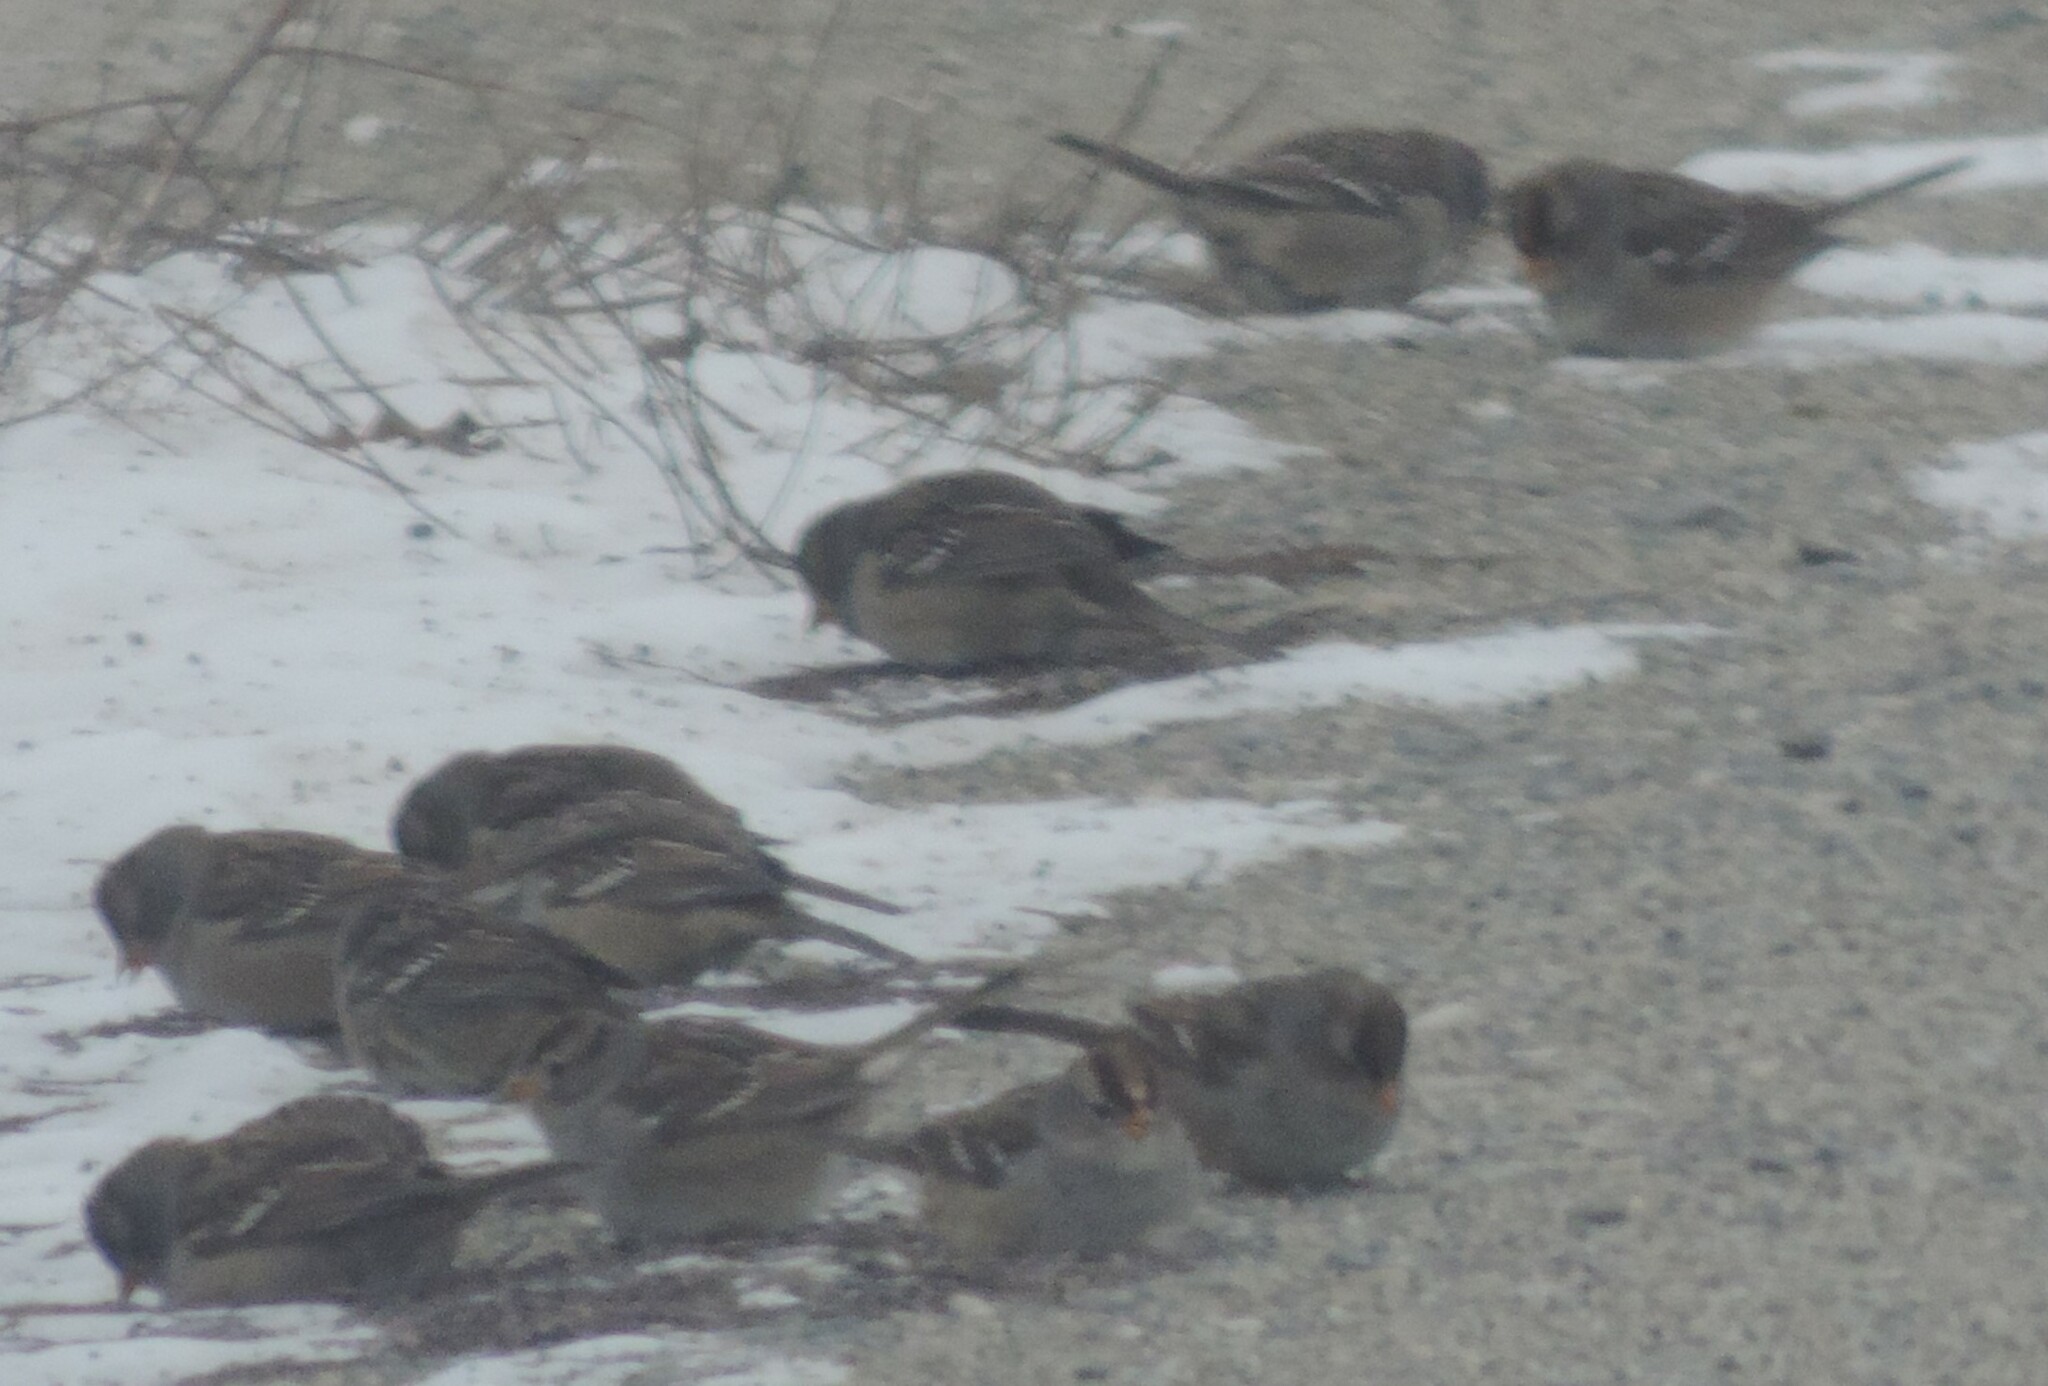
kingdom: Animalia
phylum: Chordata
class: Aves
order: Passeriformes
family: Passerellidae
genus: Zonotrichia
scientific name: Zonotrichia leucophrys
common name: White-crowned sparrow
